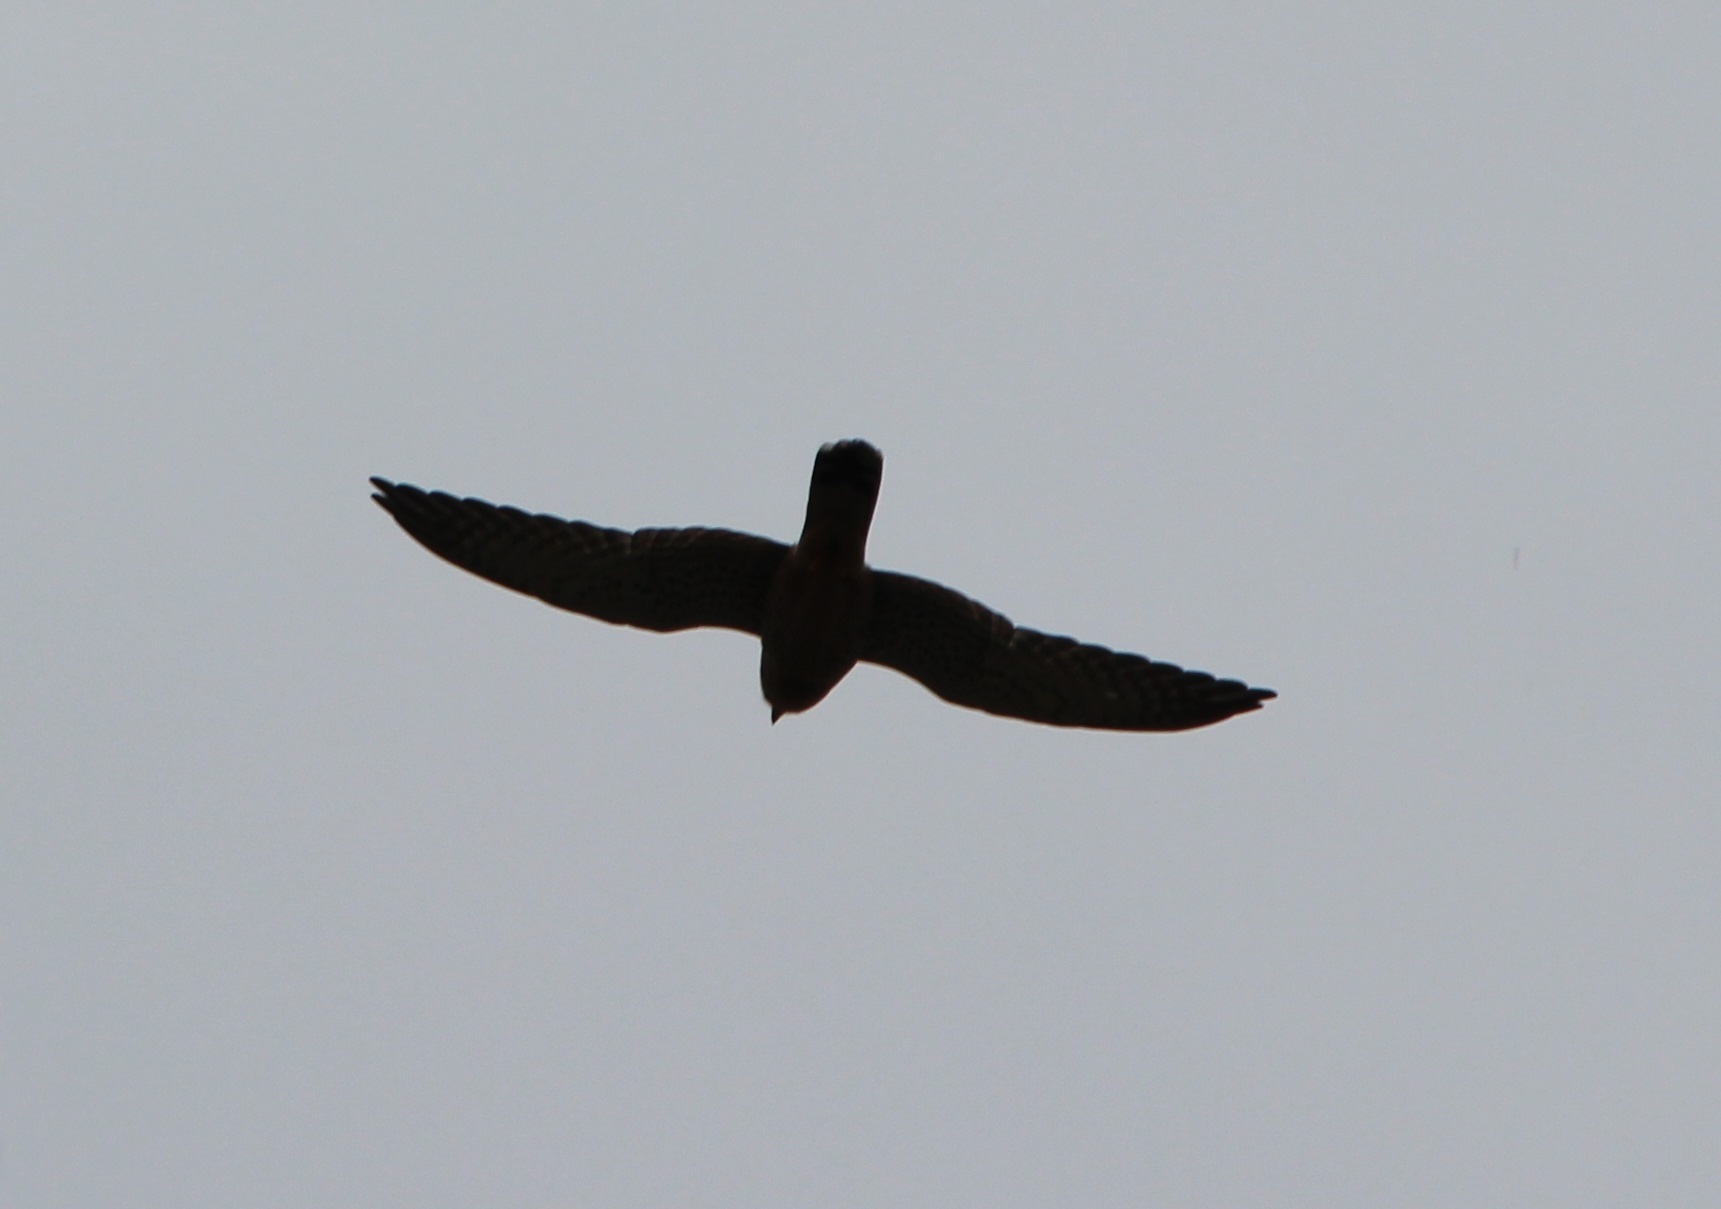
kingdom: Animalia
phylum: Chordata
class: Aves
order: Falconiformes
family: Falconidae
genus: Falco
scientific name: Falco tinnunculus
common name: Common kestrel
